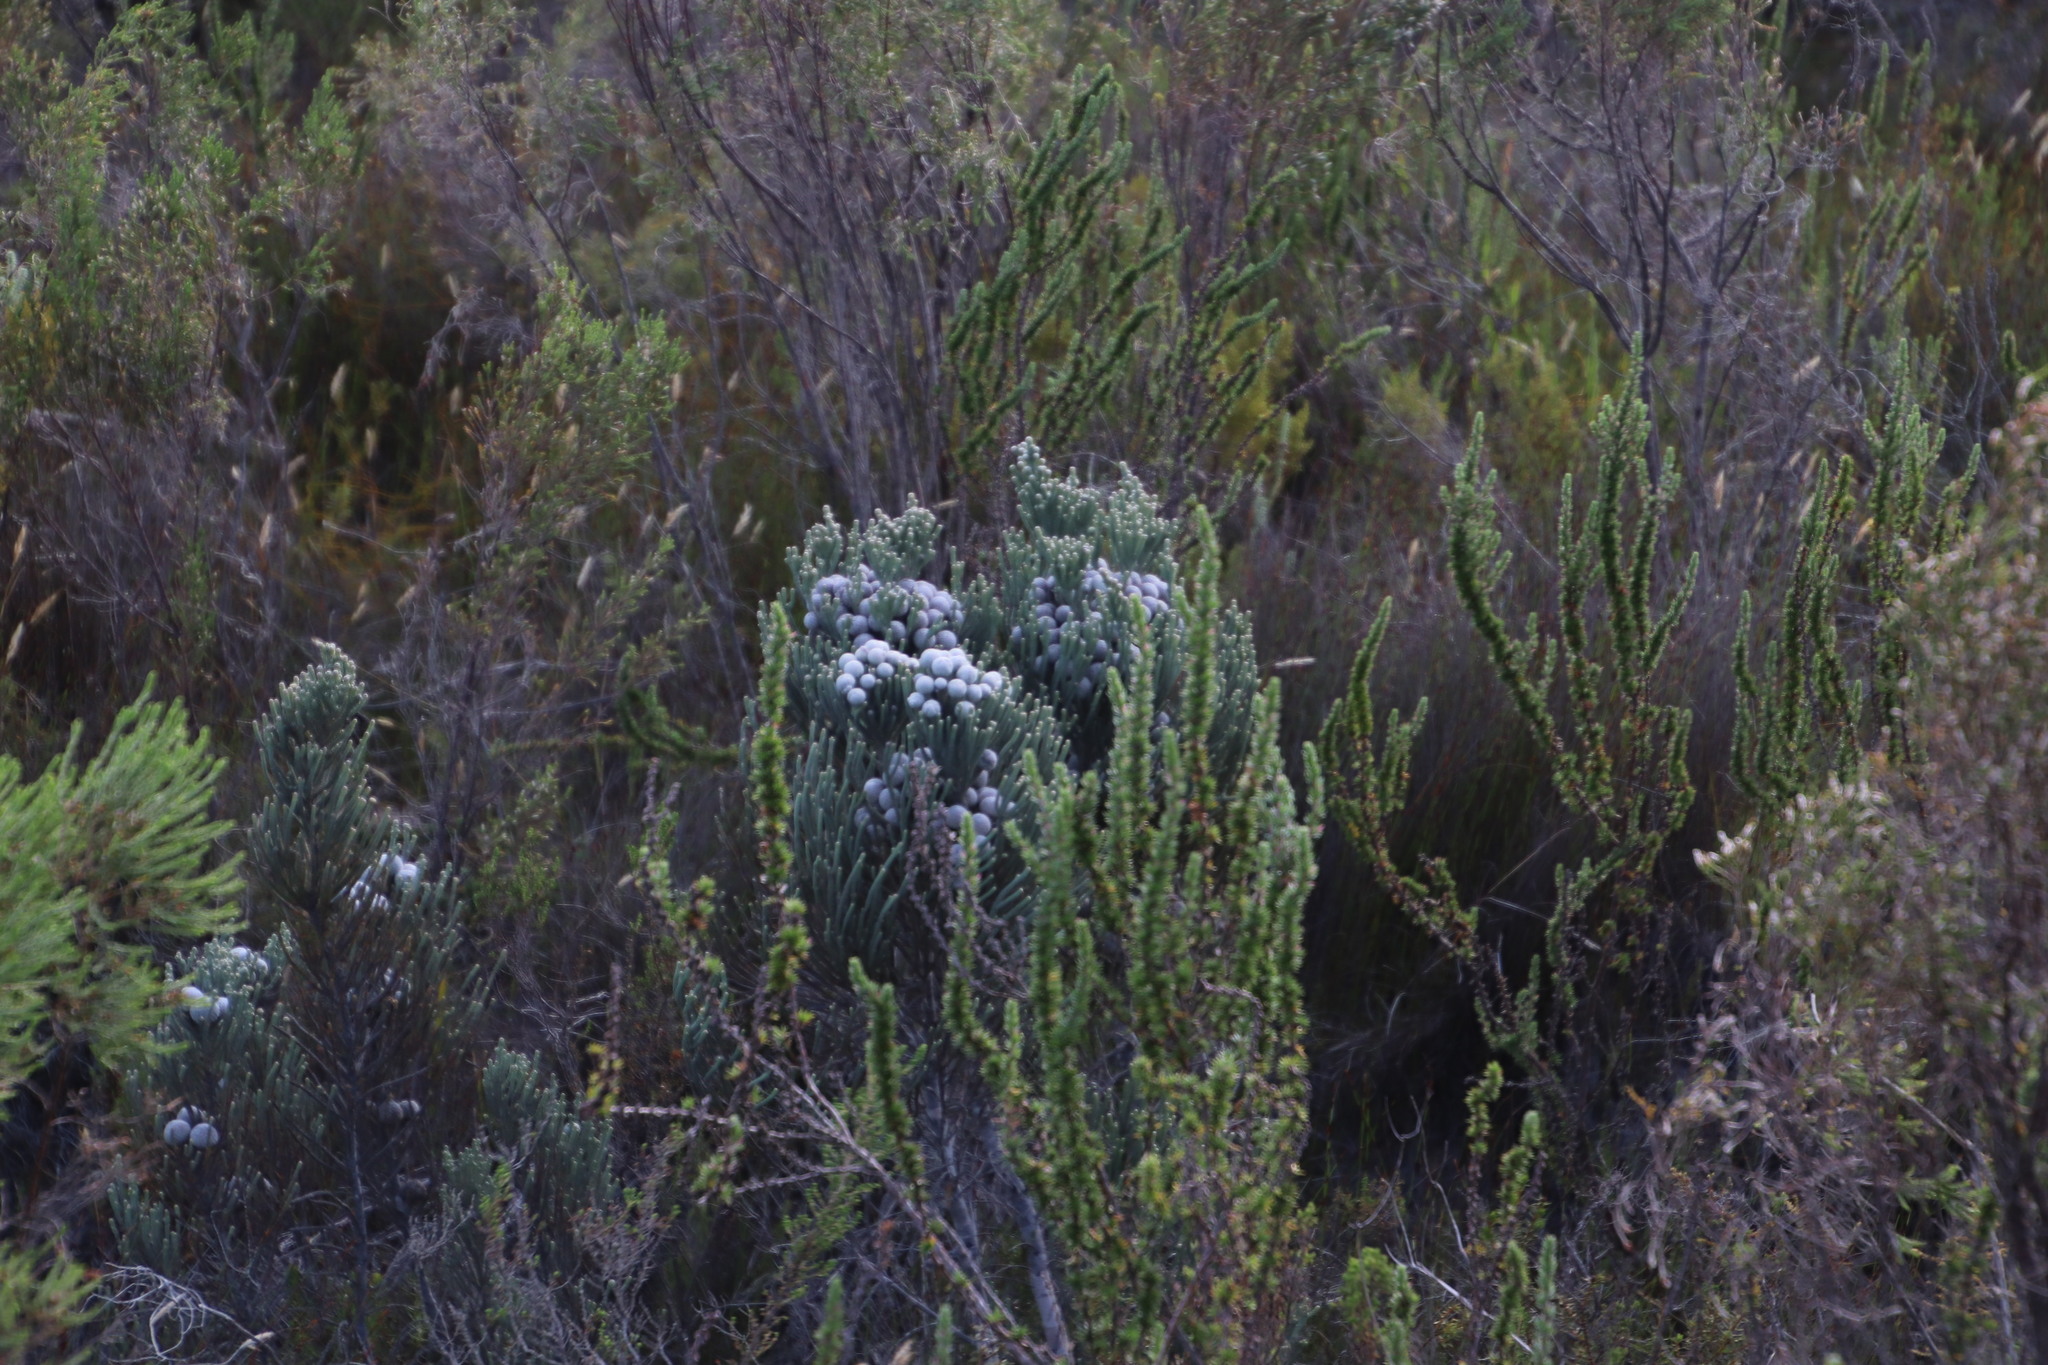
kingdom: Plantae
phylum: Tracheophyta
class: Magnoliopsida
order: Bruniales
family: Bruniaceae
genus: Brunia
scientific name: Brunia laevis
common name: Silver brunia
